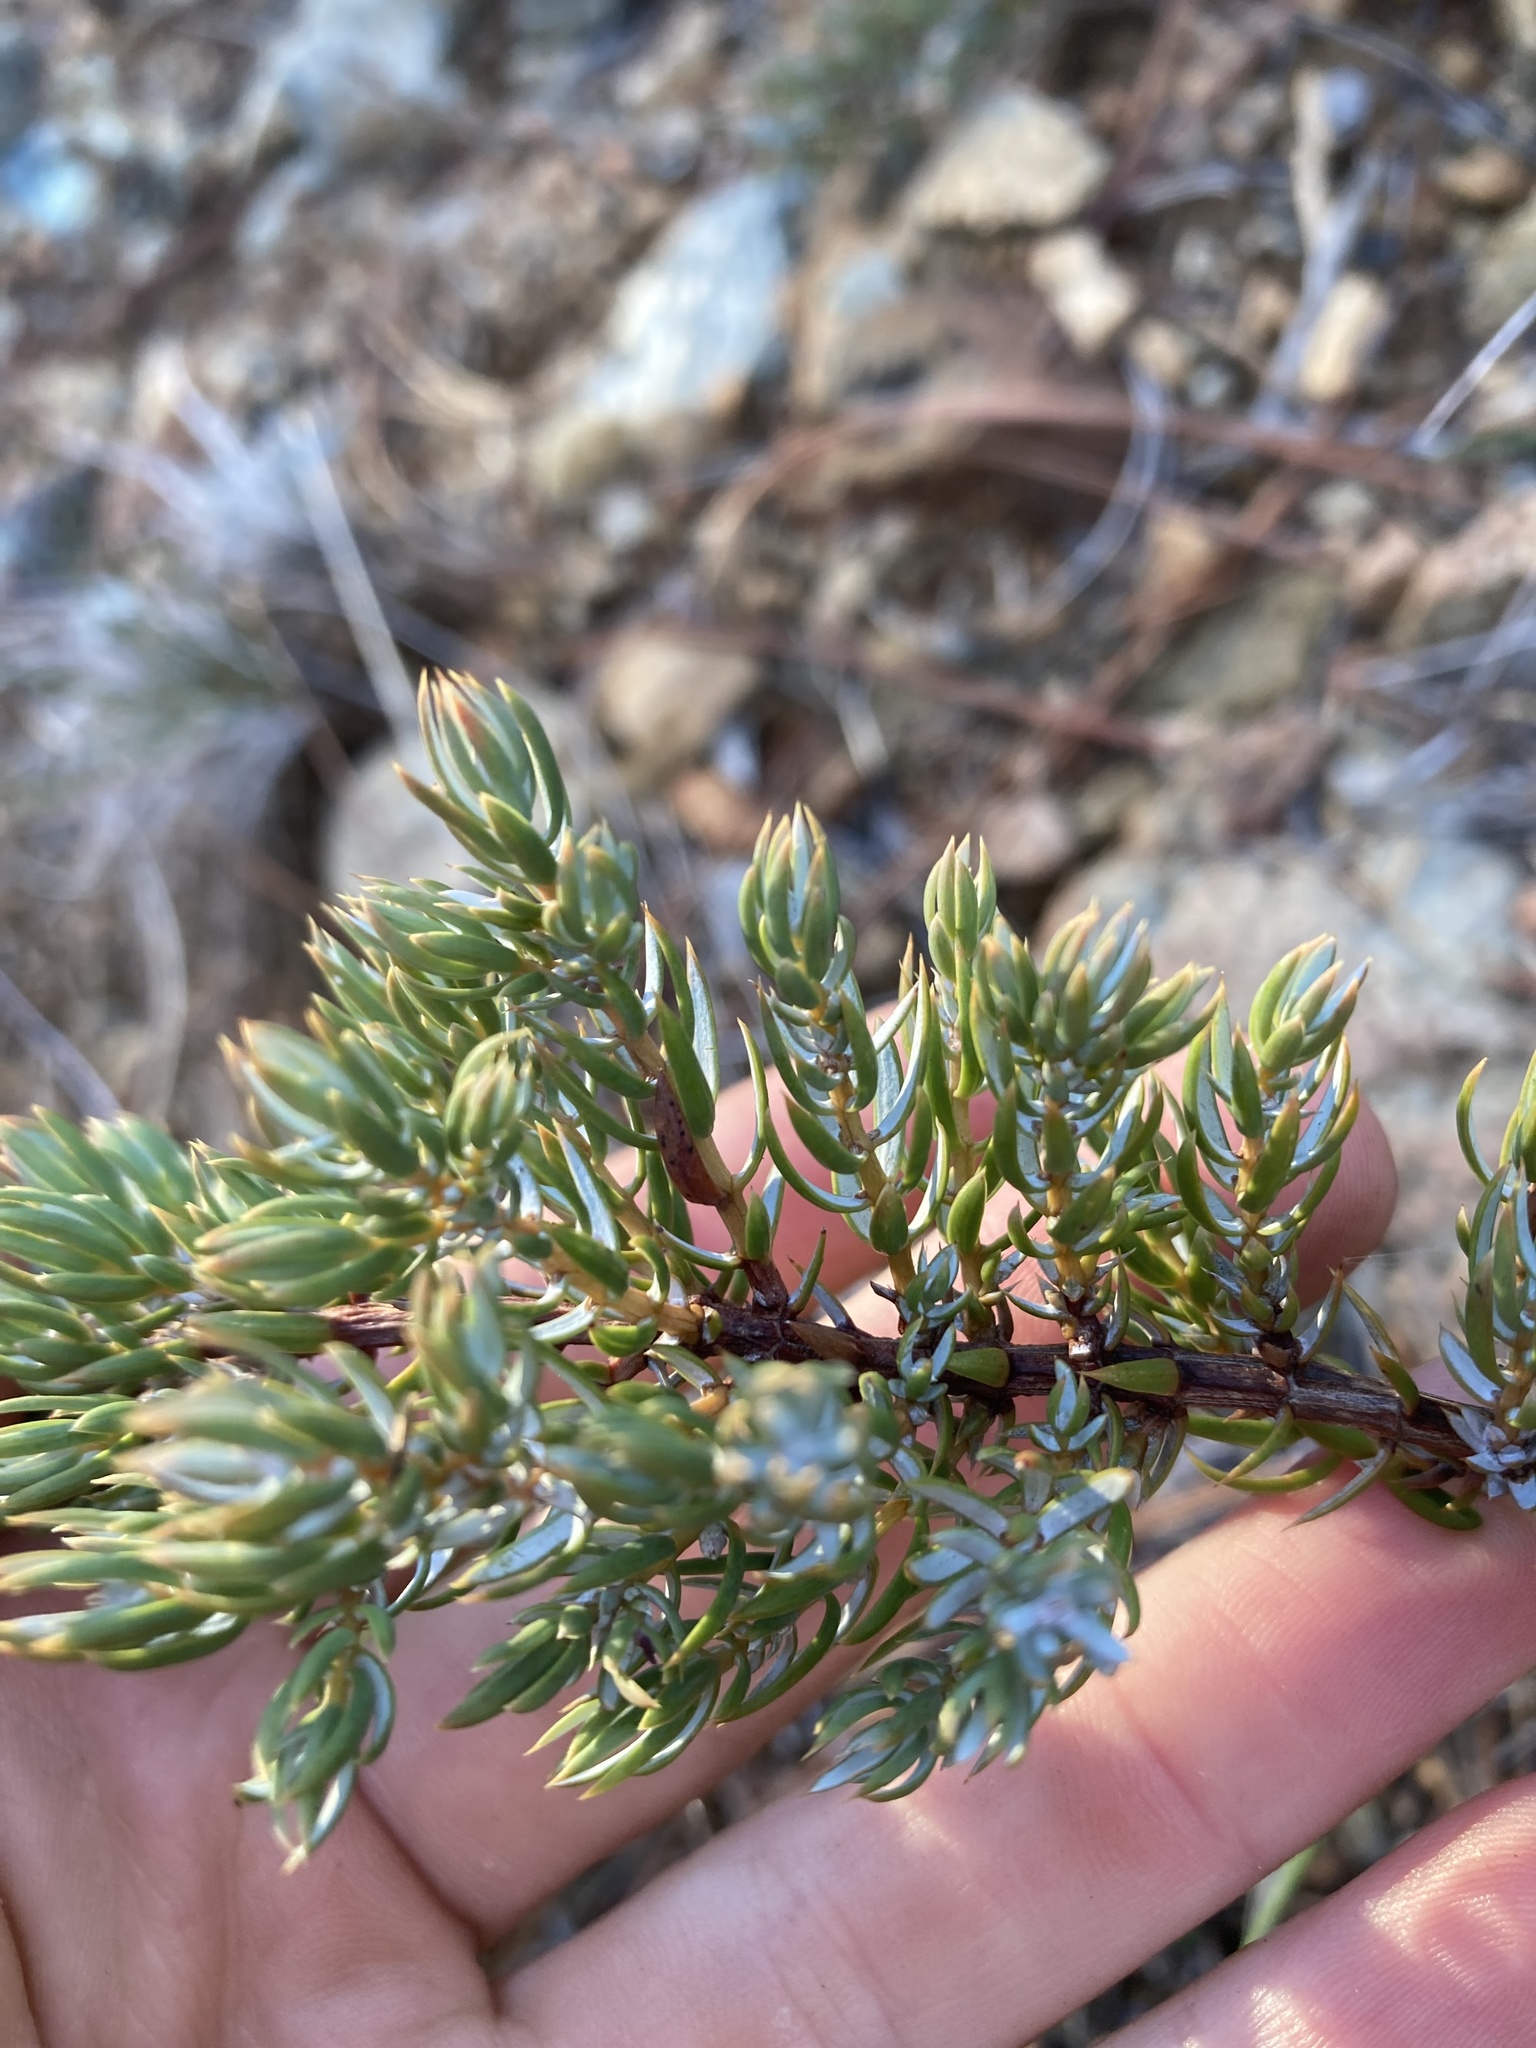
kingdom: Plantae
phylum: Tracheophyta
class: Pinopsida
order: Pinales
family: Cupressaceae
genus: Juniperus
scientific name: Juniperus communis
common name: Common juniper
